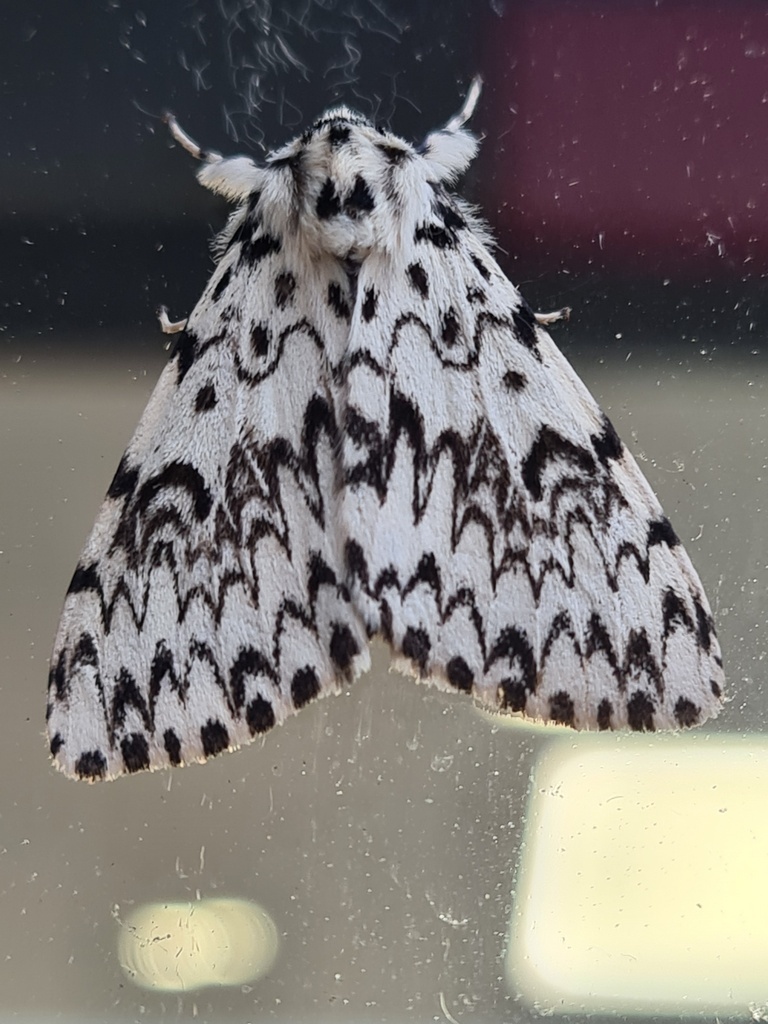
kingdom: Animalia
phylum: Arthropoda
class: Insecta
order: Lepidoptera
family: Erebidae
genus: Lymantria
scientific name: Lymantria monacha
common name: Black arches
